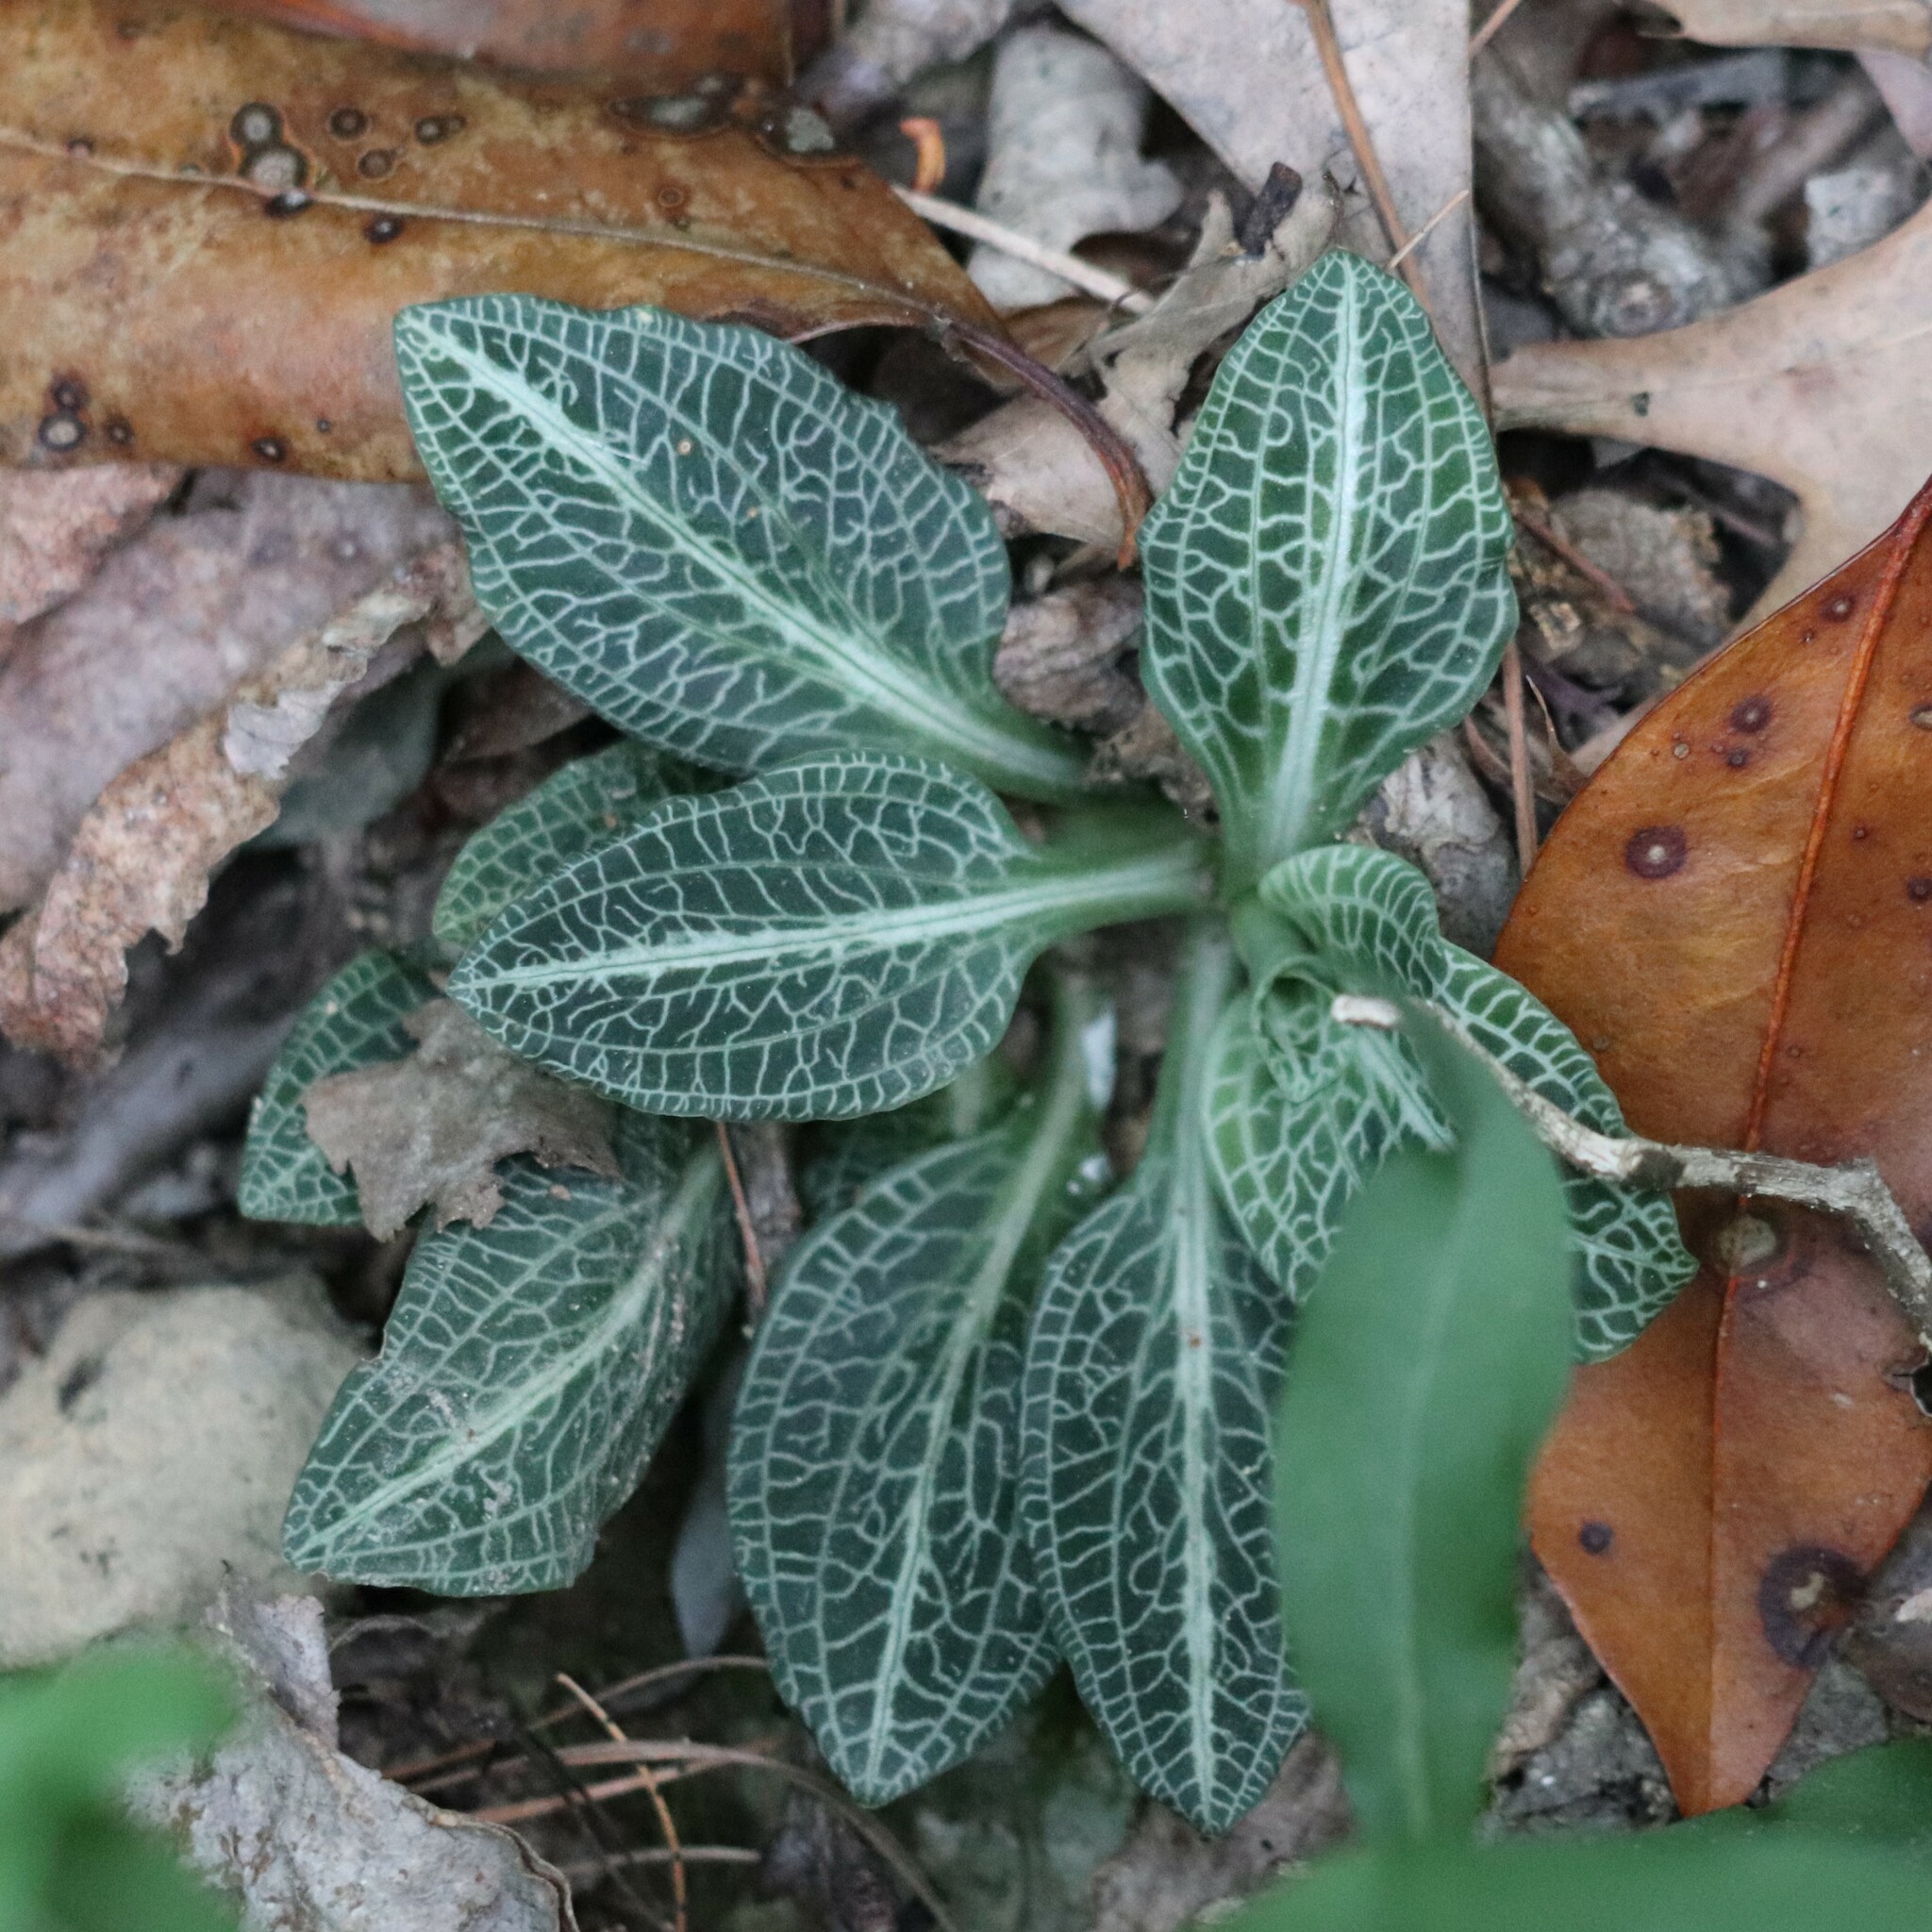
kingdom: Plantae
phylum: Tracheophyta
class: Liliopsida
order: Asparagales
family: Orchidaceae
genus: Goodyera
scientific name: Goodyera pubescens
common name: Downy rattlesnake-plantain
